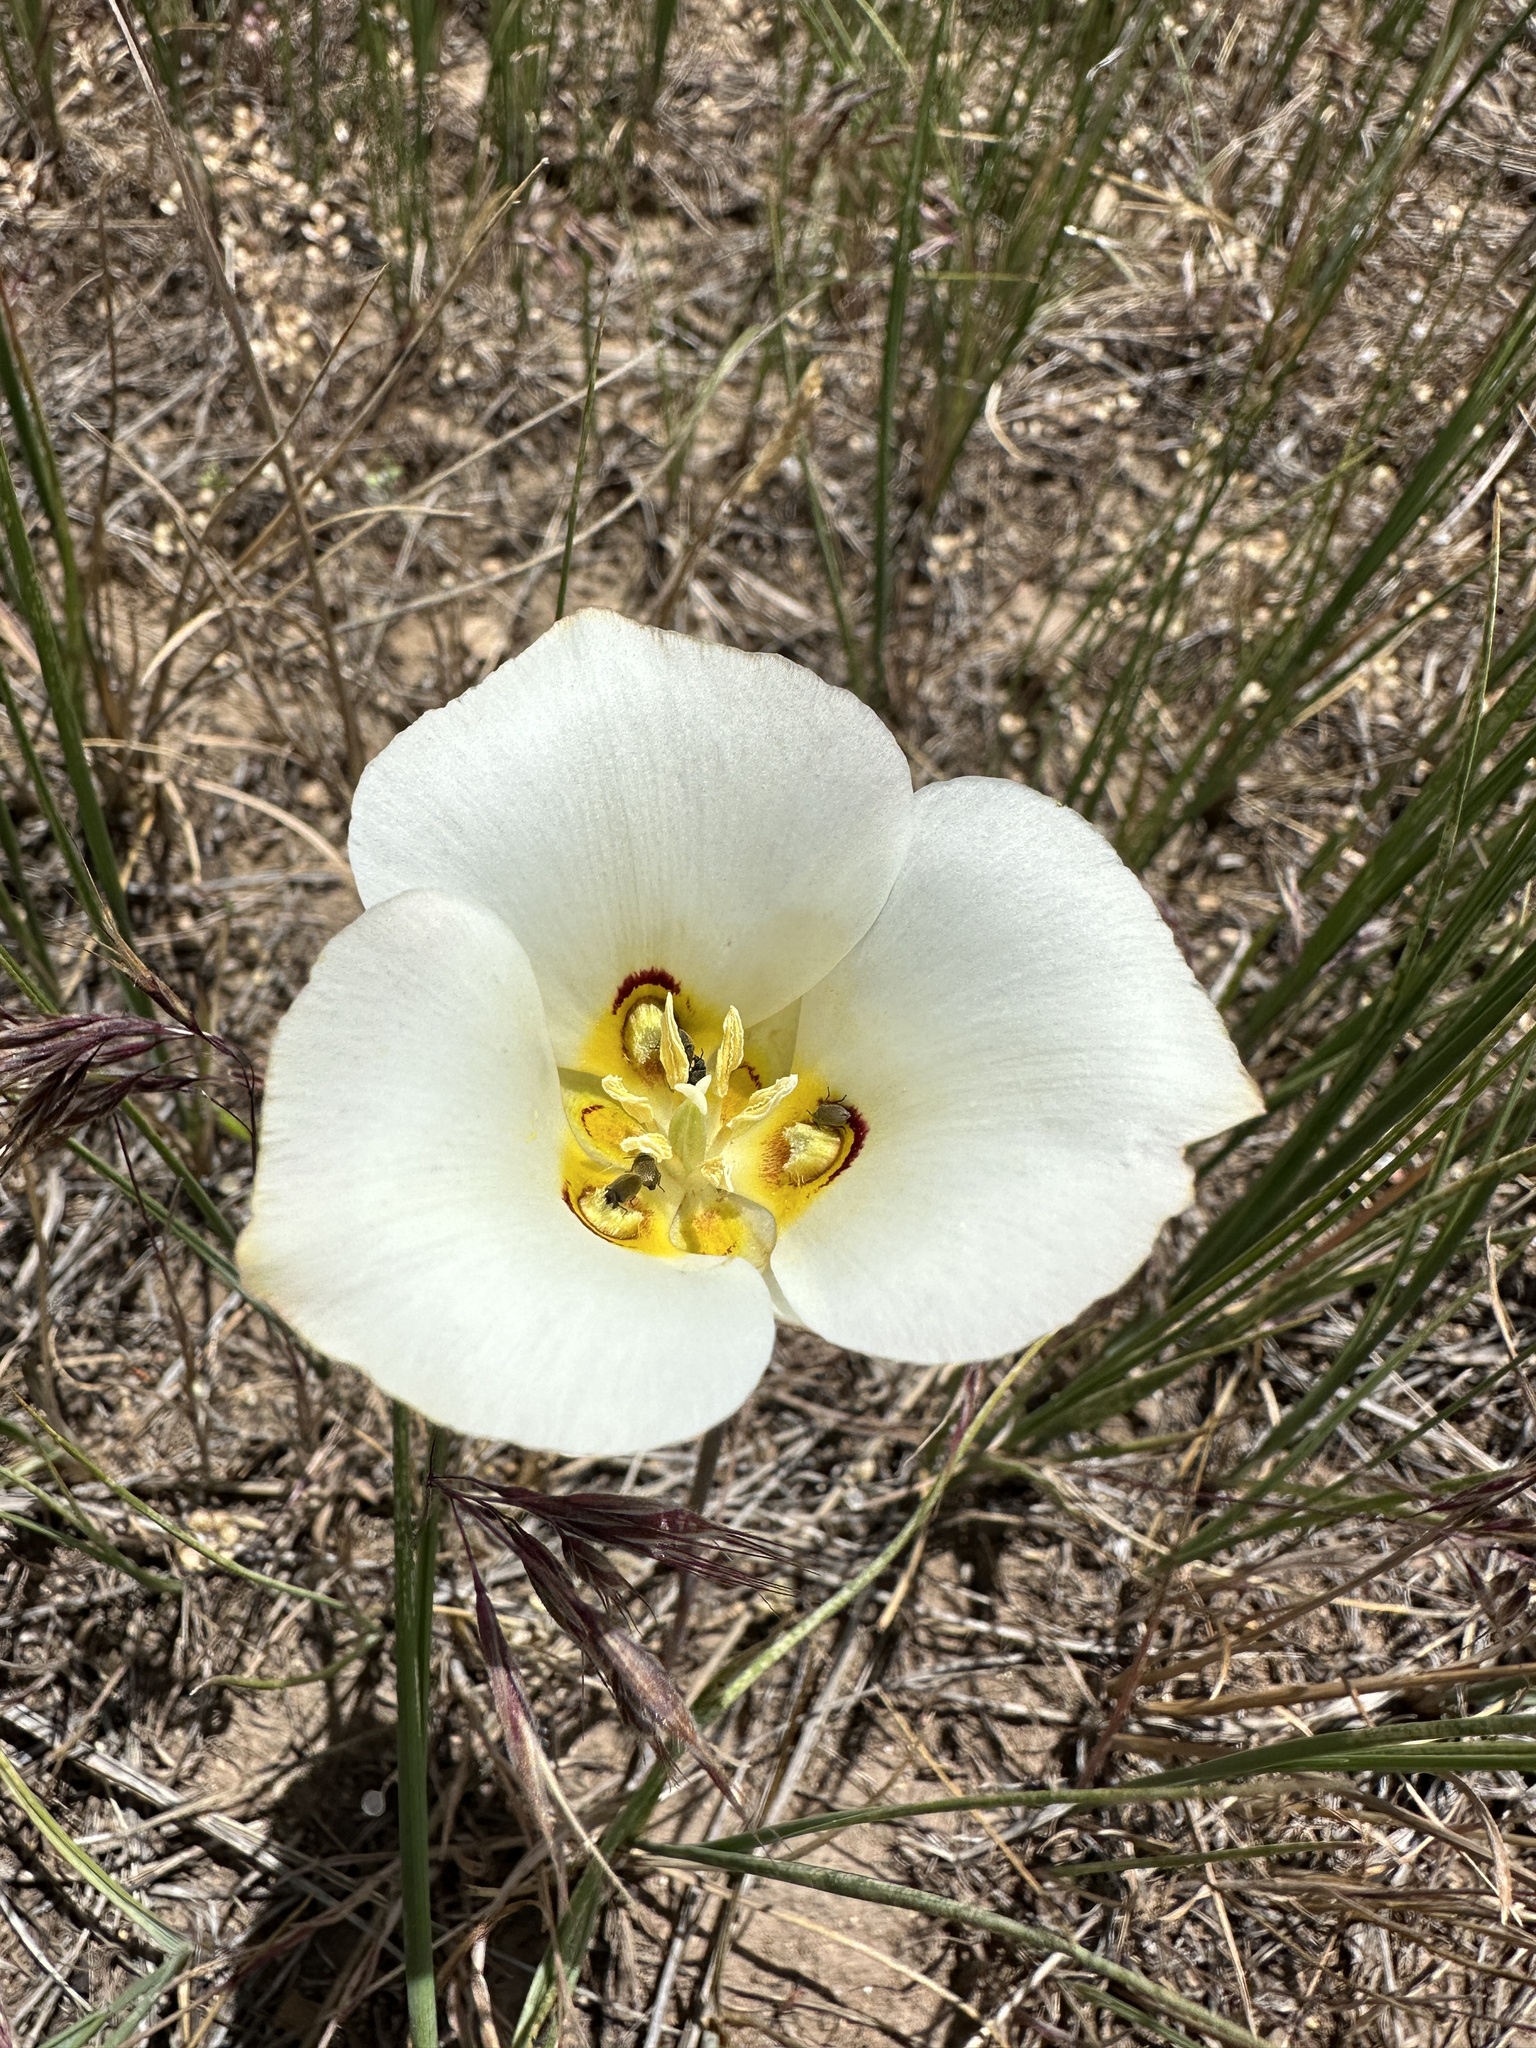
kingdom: Plantae
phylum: Tracheophyta
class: Liliopsida
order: Liliales
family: Liliaceae
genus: Calochortus
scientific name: Calochortus nuttallii
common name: Sego-lily
